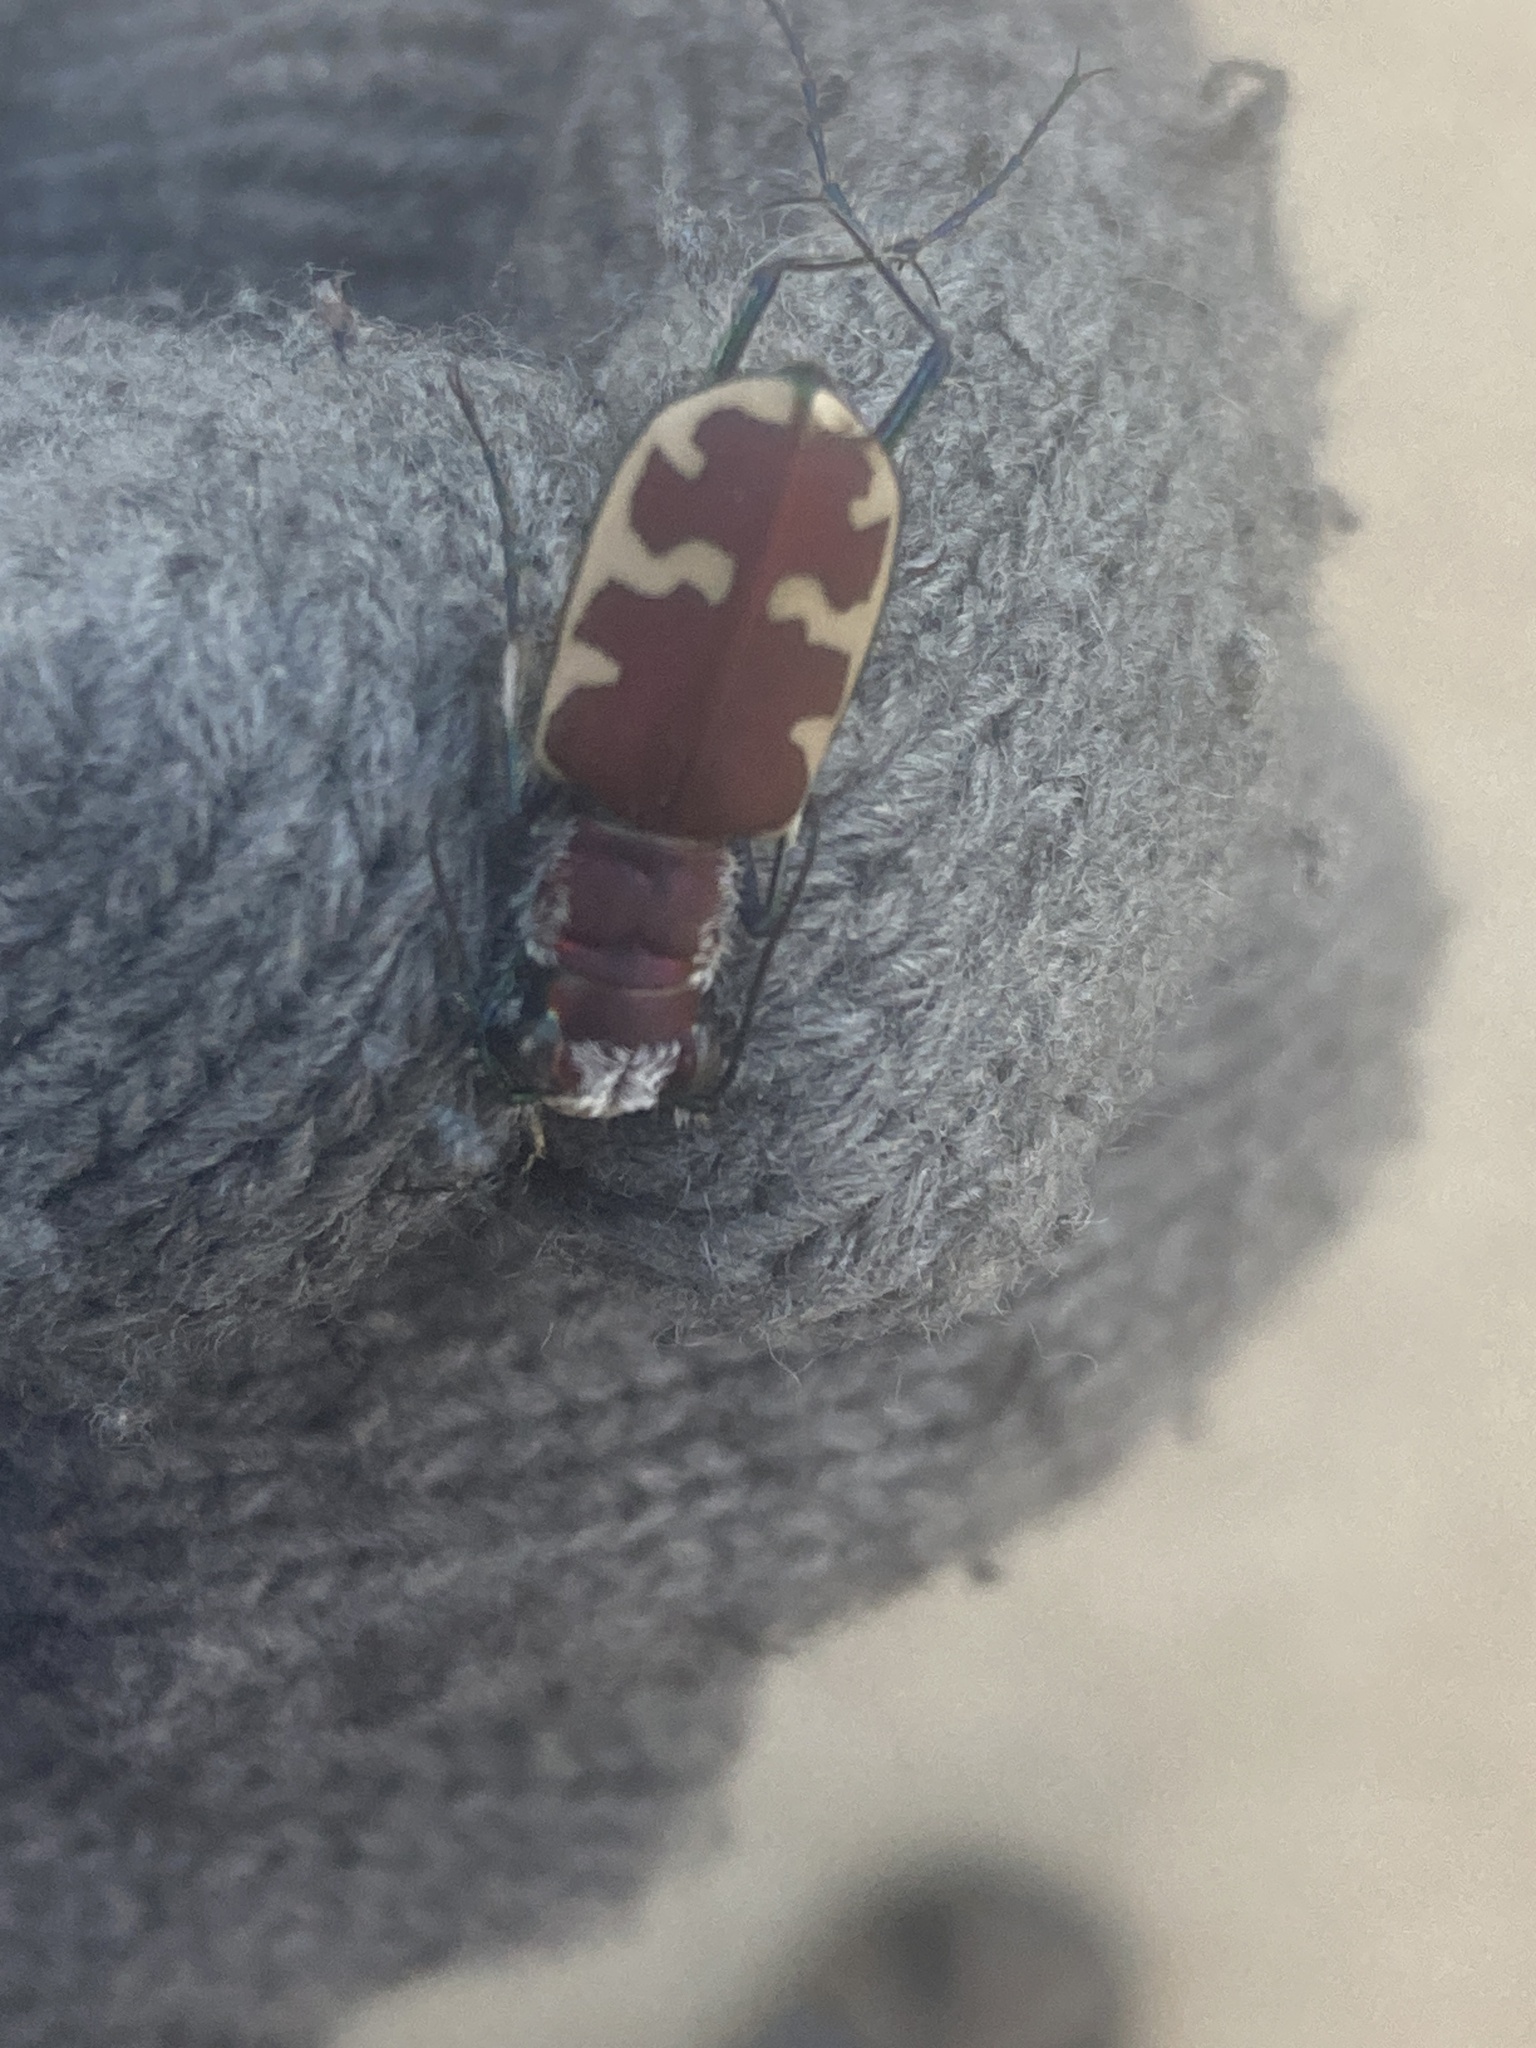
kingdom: Animalia
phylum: Arthropoda
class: Insecta
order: Coleoptera
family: Carabidae
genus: Cicindela
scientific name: Cicindela formosa
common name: Big sand tiger beetle
